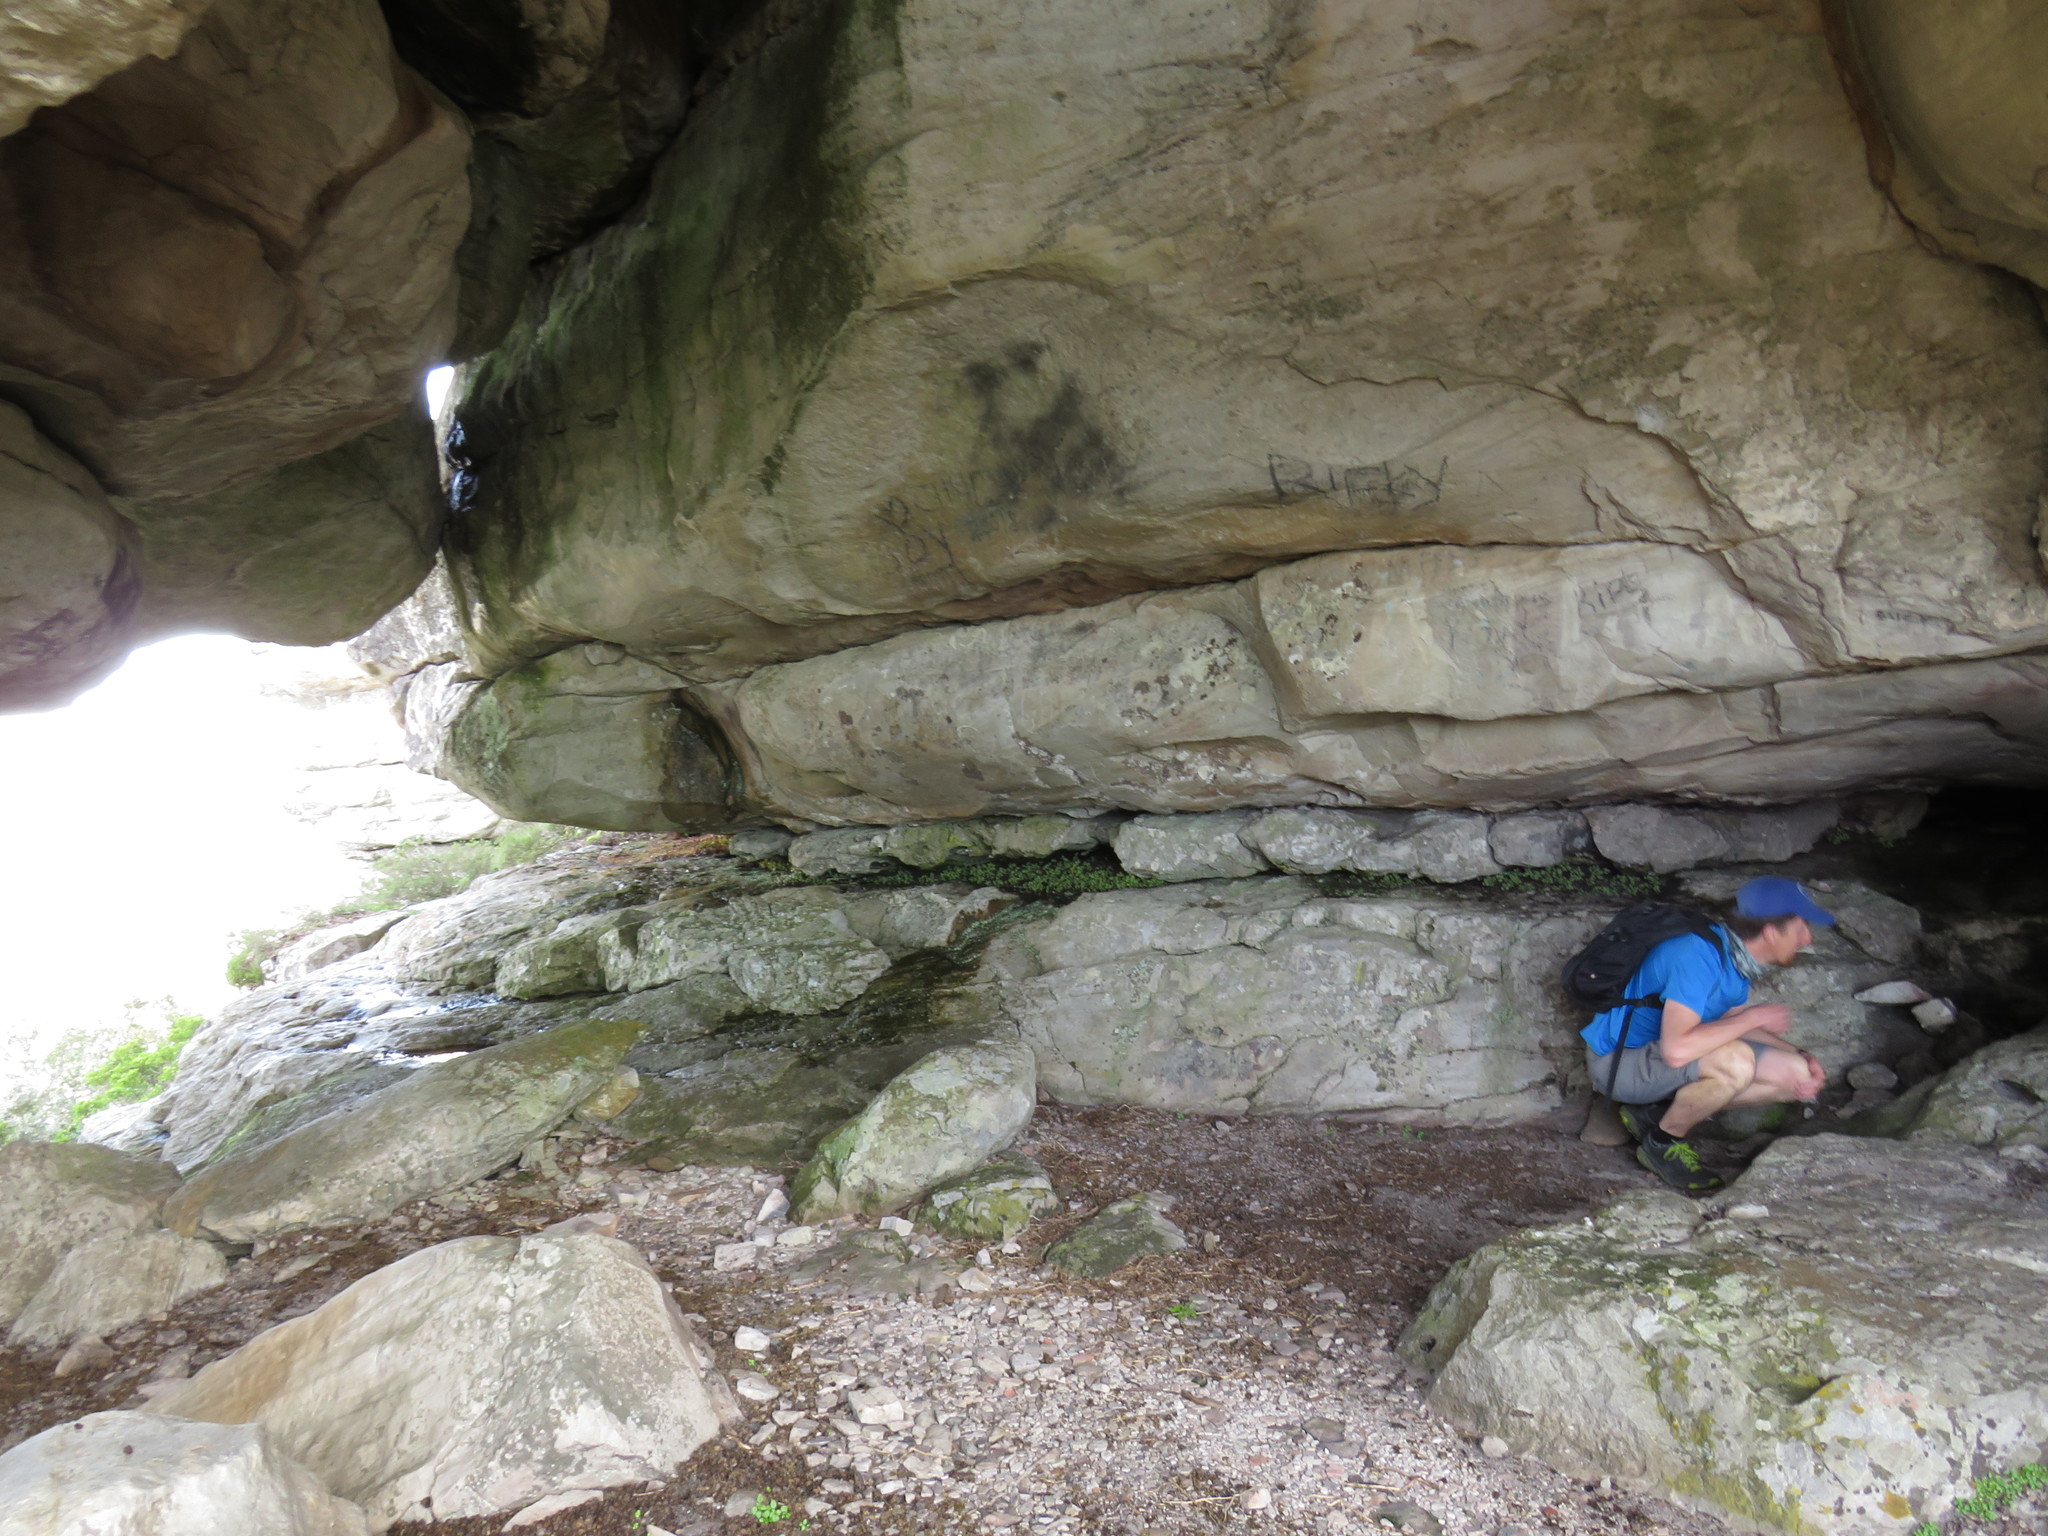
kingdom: Plantae
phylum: Tracheophyta
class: Magnoliopsida
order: Saxifragales
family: Crassulaceae
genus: Crassula
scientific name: Crassula capensis
